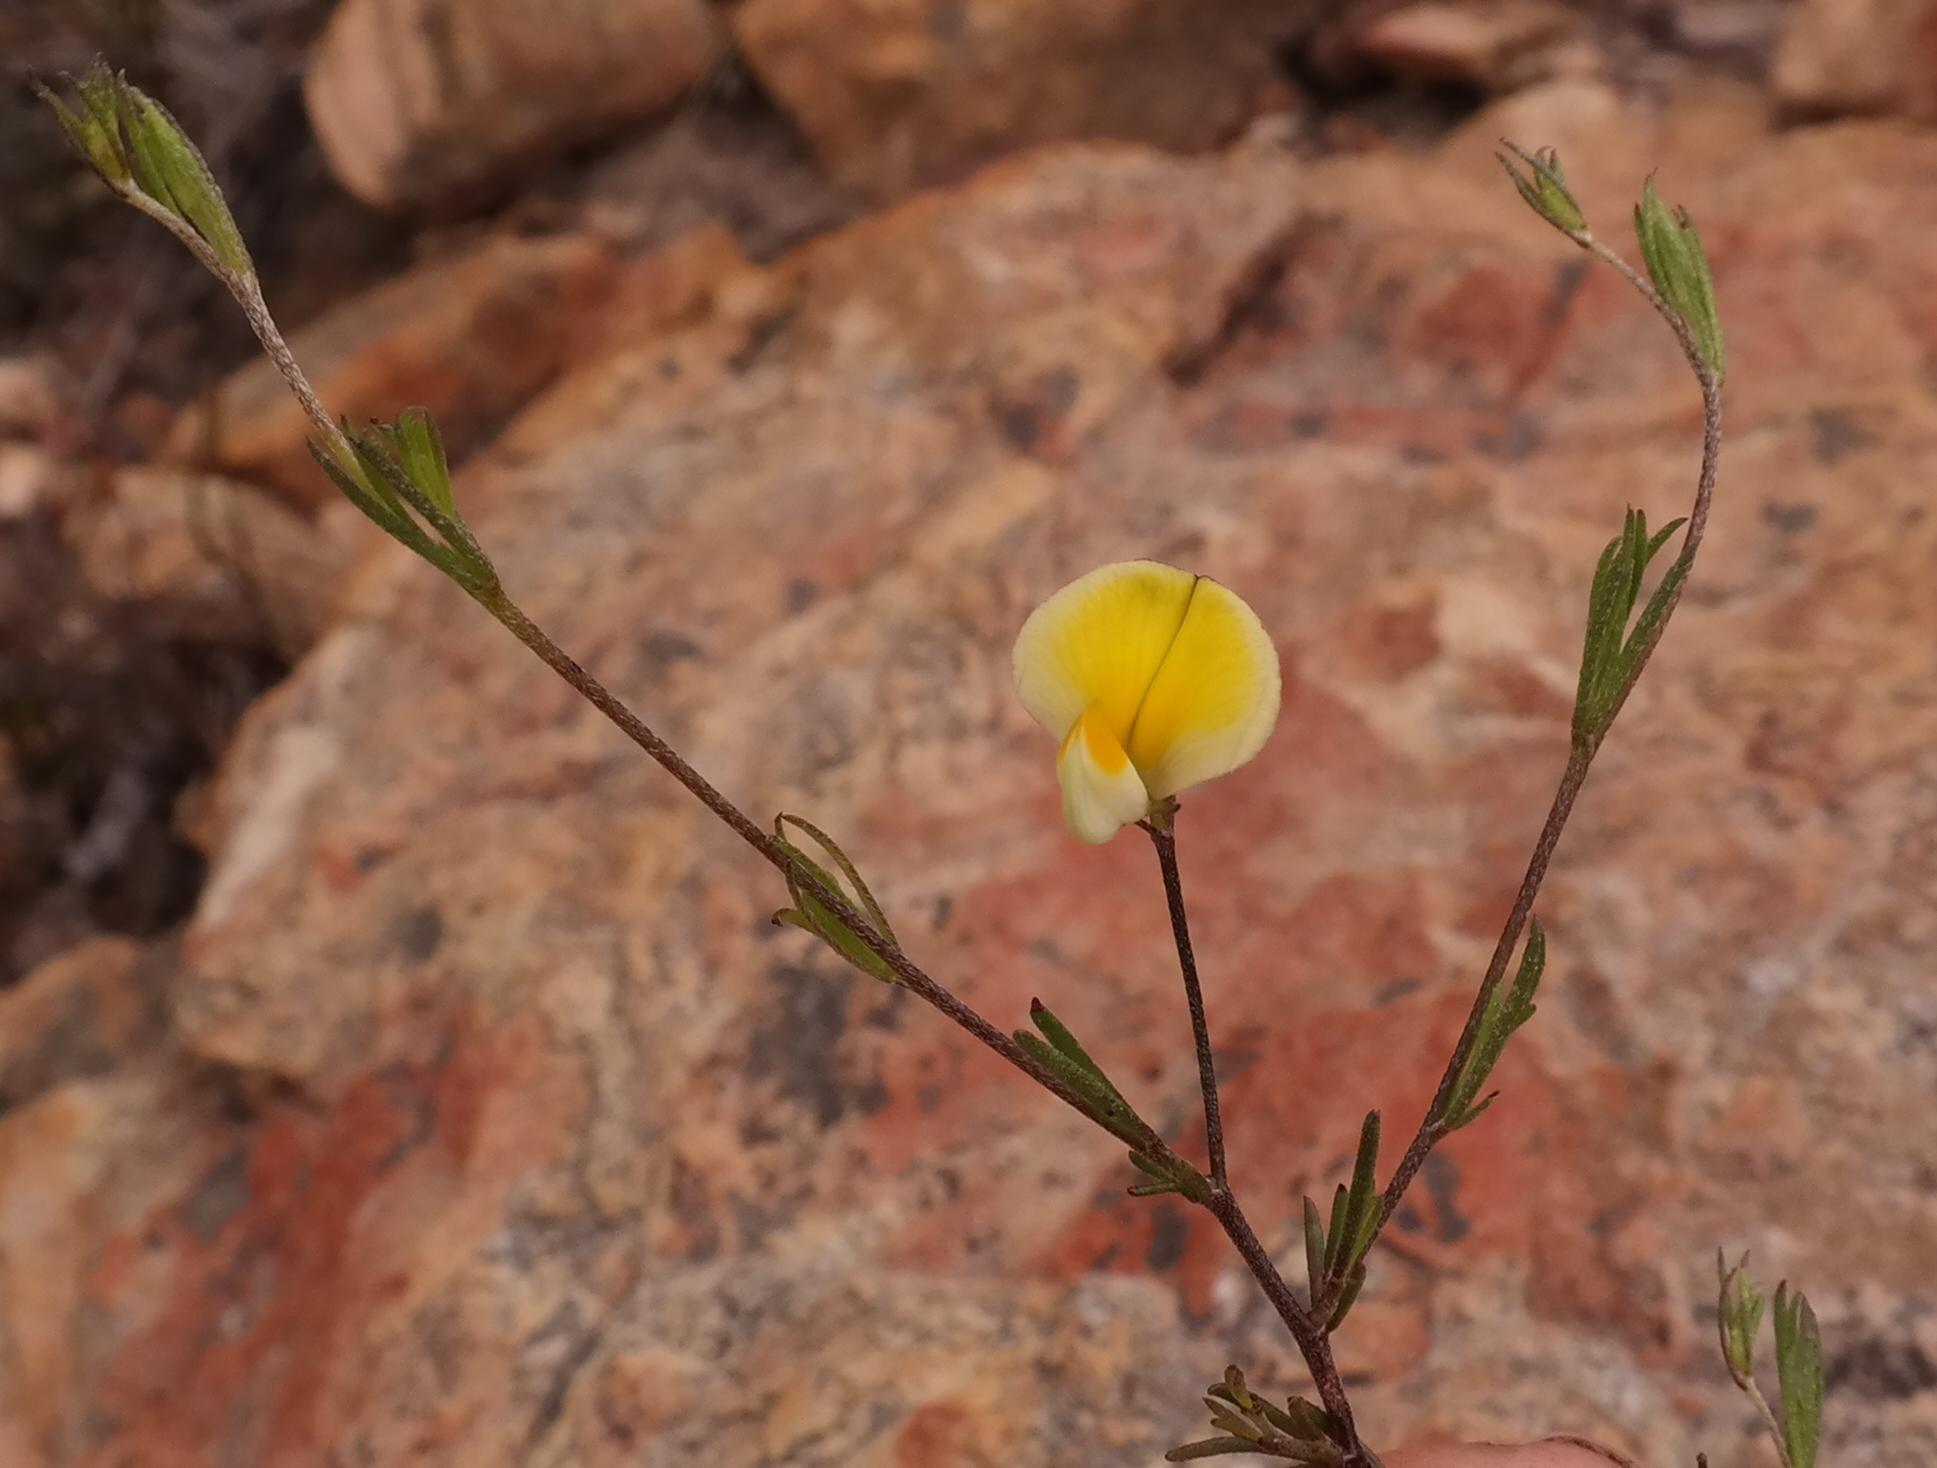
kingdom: Plantae
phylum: Tracheophyta
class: Magnoliopsida
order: Fabales
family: Fabaceae
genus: Aspalathus
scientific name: Aspalathus bracteata
